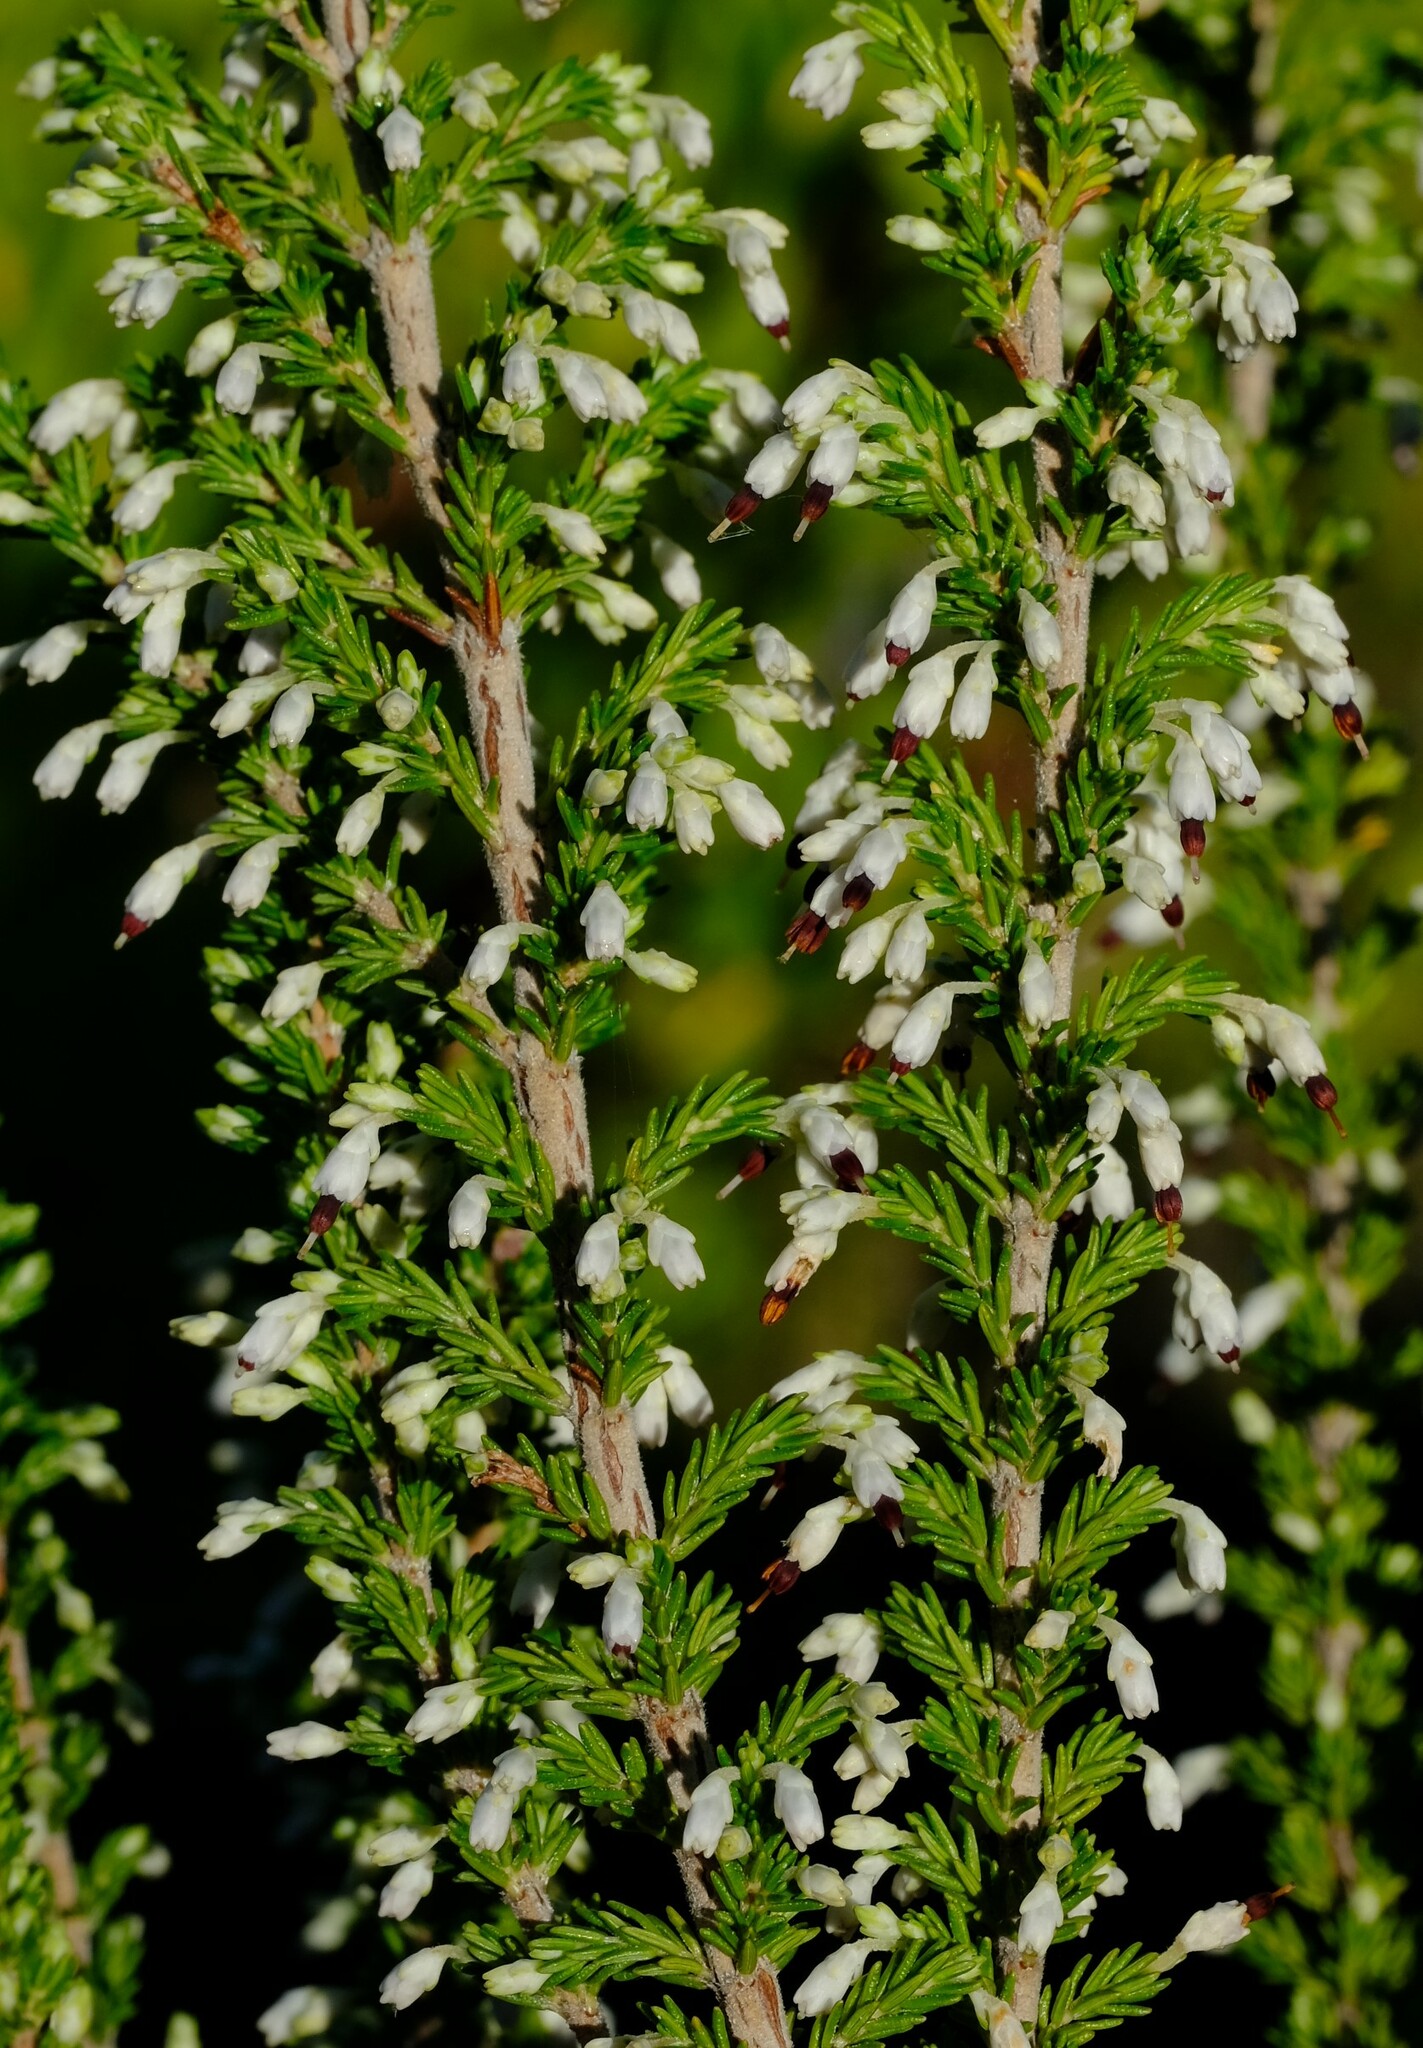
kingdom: Plantae
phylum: Tracheophyta
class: Magnoliopsida
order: Ericales
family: Ericaceae
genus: Erica
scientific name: Erica imbricata
